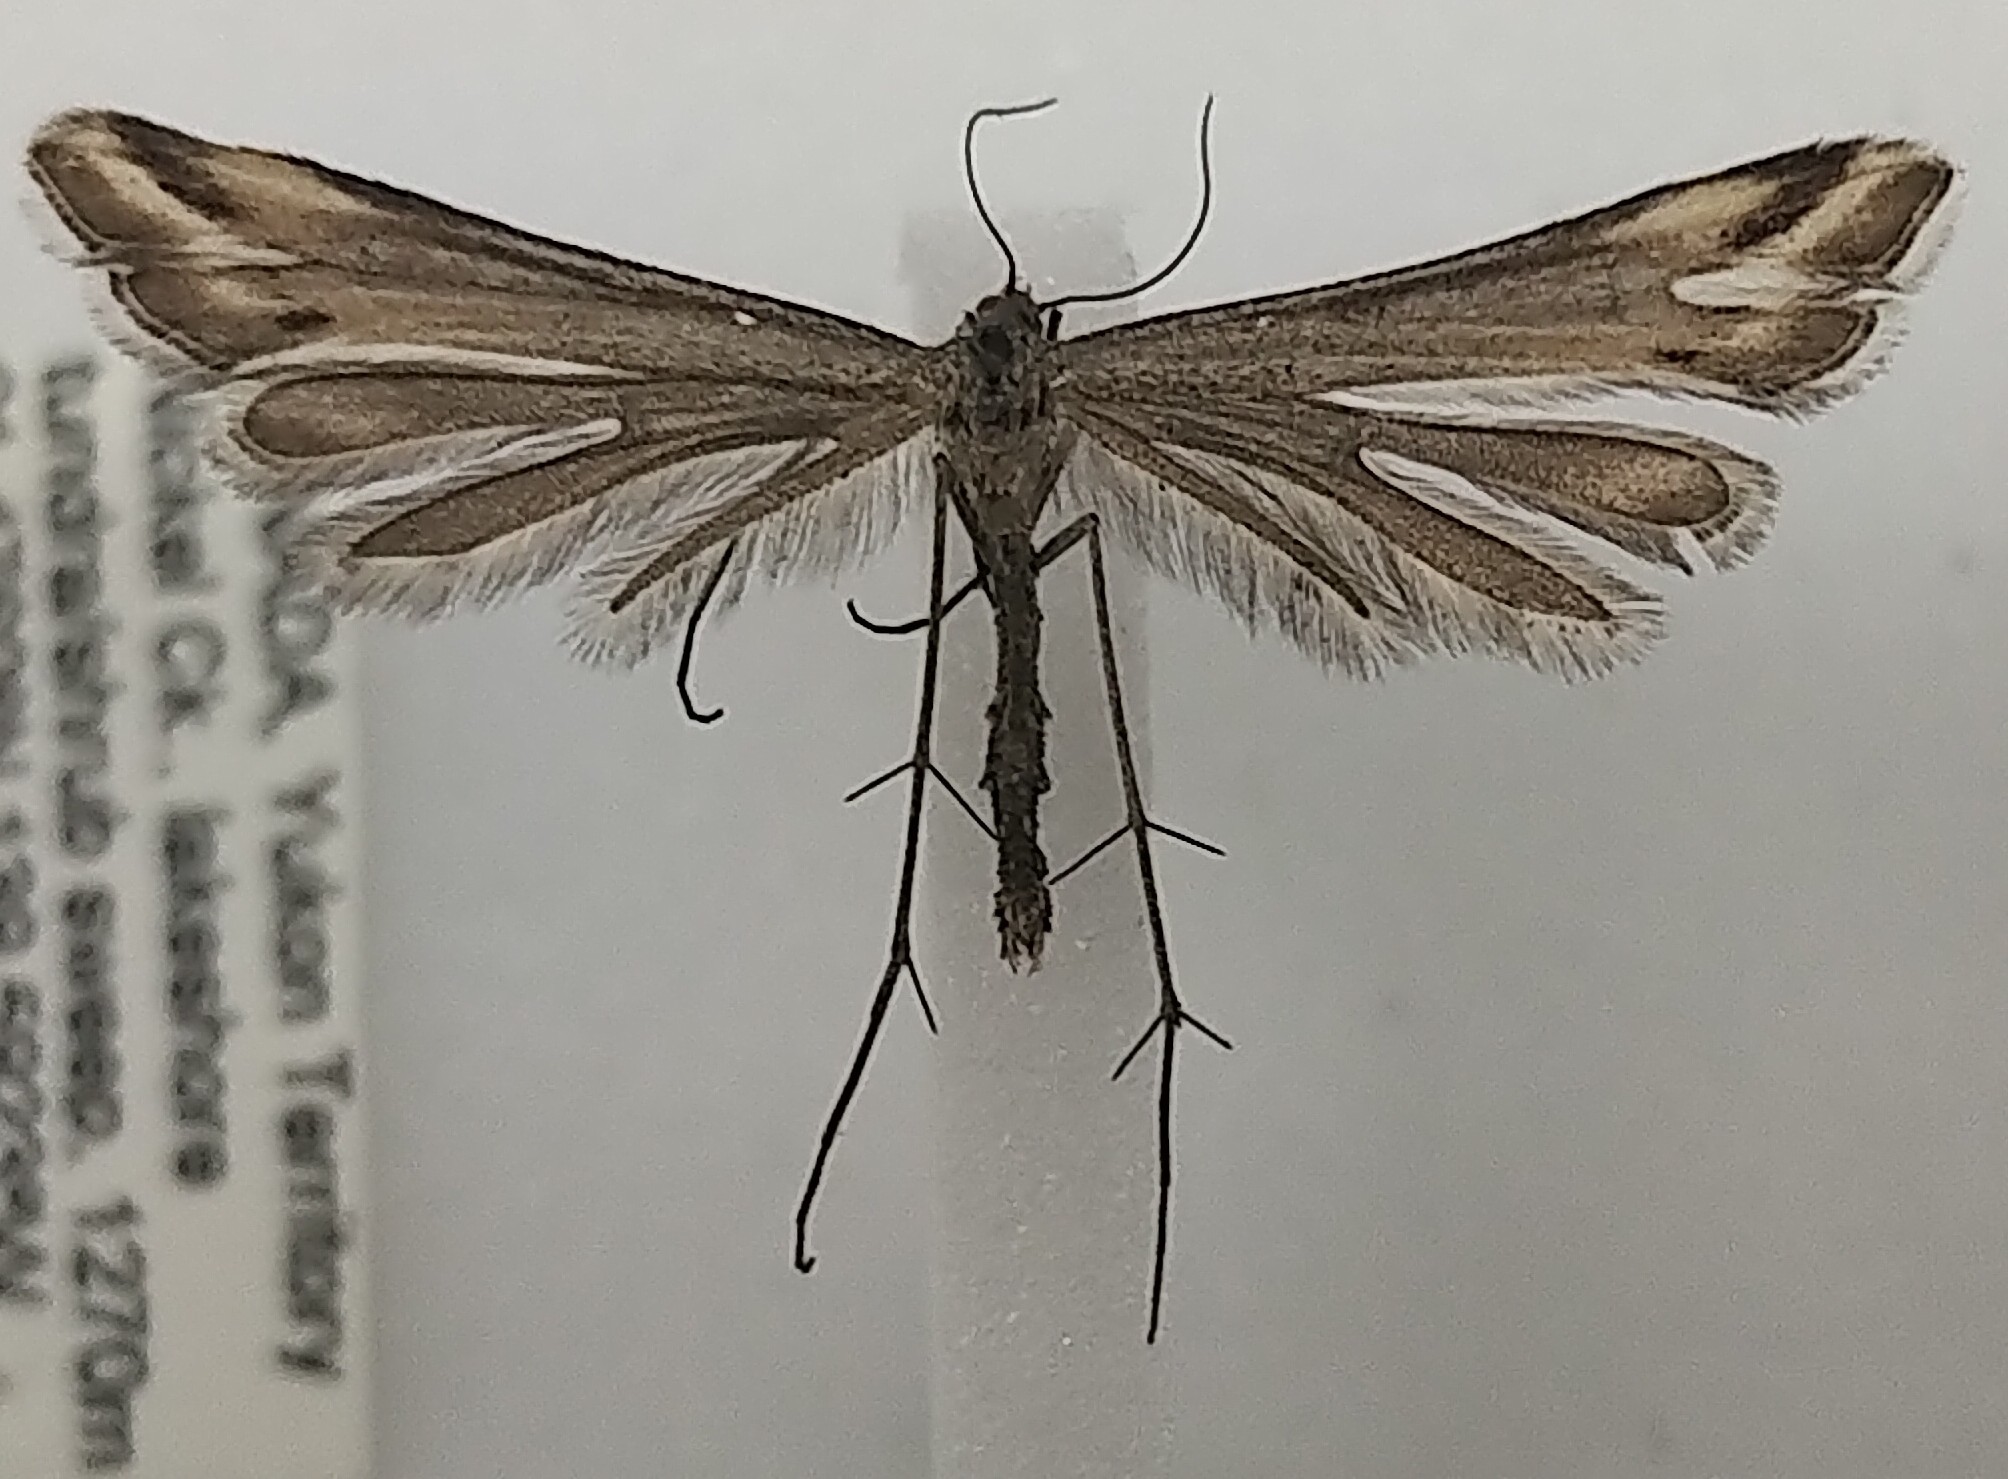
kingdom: Animalia
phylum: Arthropoda
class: Insecta
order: Lepidoptera
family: Pterophoridae
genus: Paraplatyptilia
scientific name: Paraplatyptilia petrodactylus
